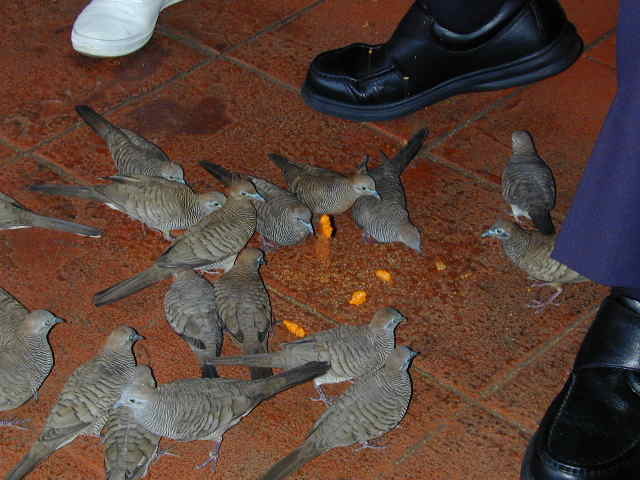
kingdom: Animalia
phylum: Chordata
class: Aves
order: Columbiformes
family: Columbidae
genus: Geopelia
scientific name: Geopelia striata
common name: Zebra dove
